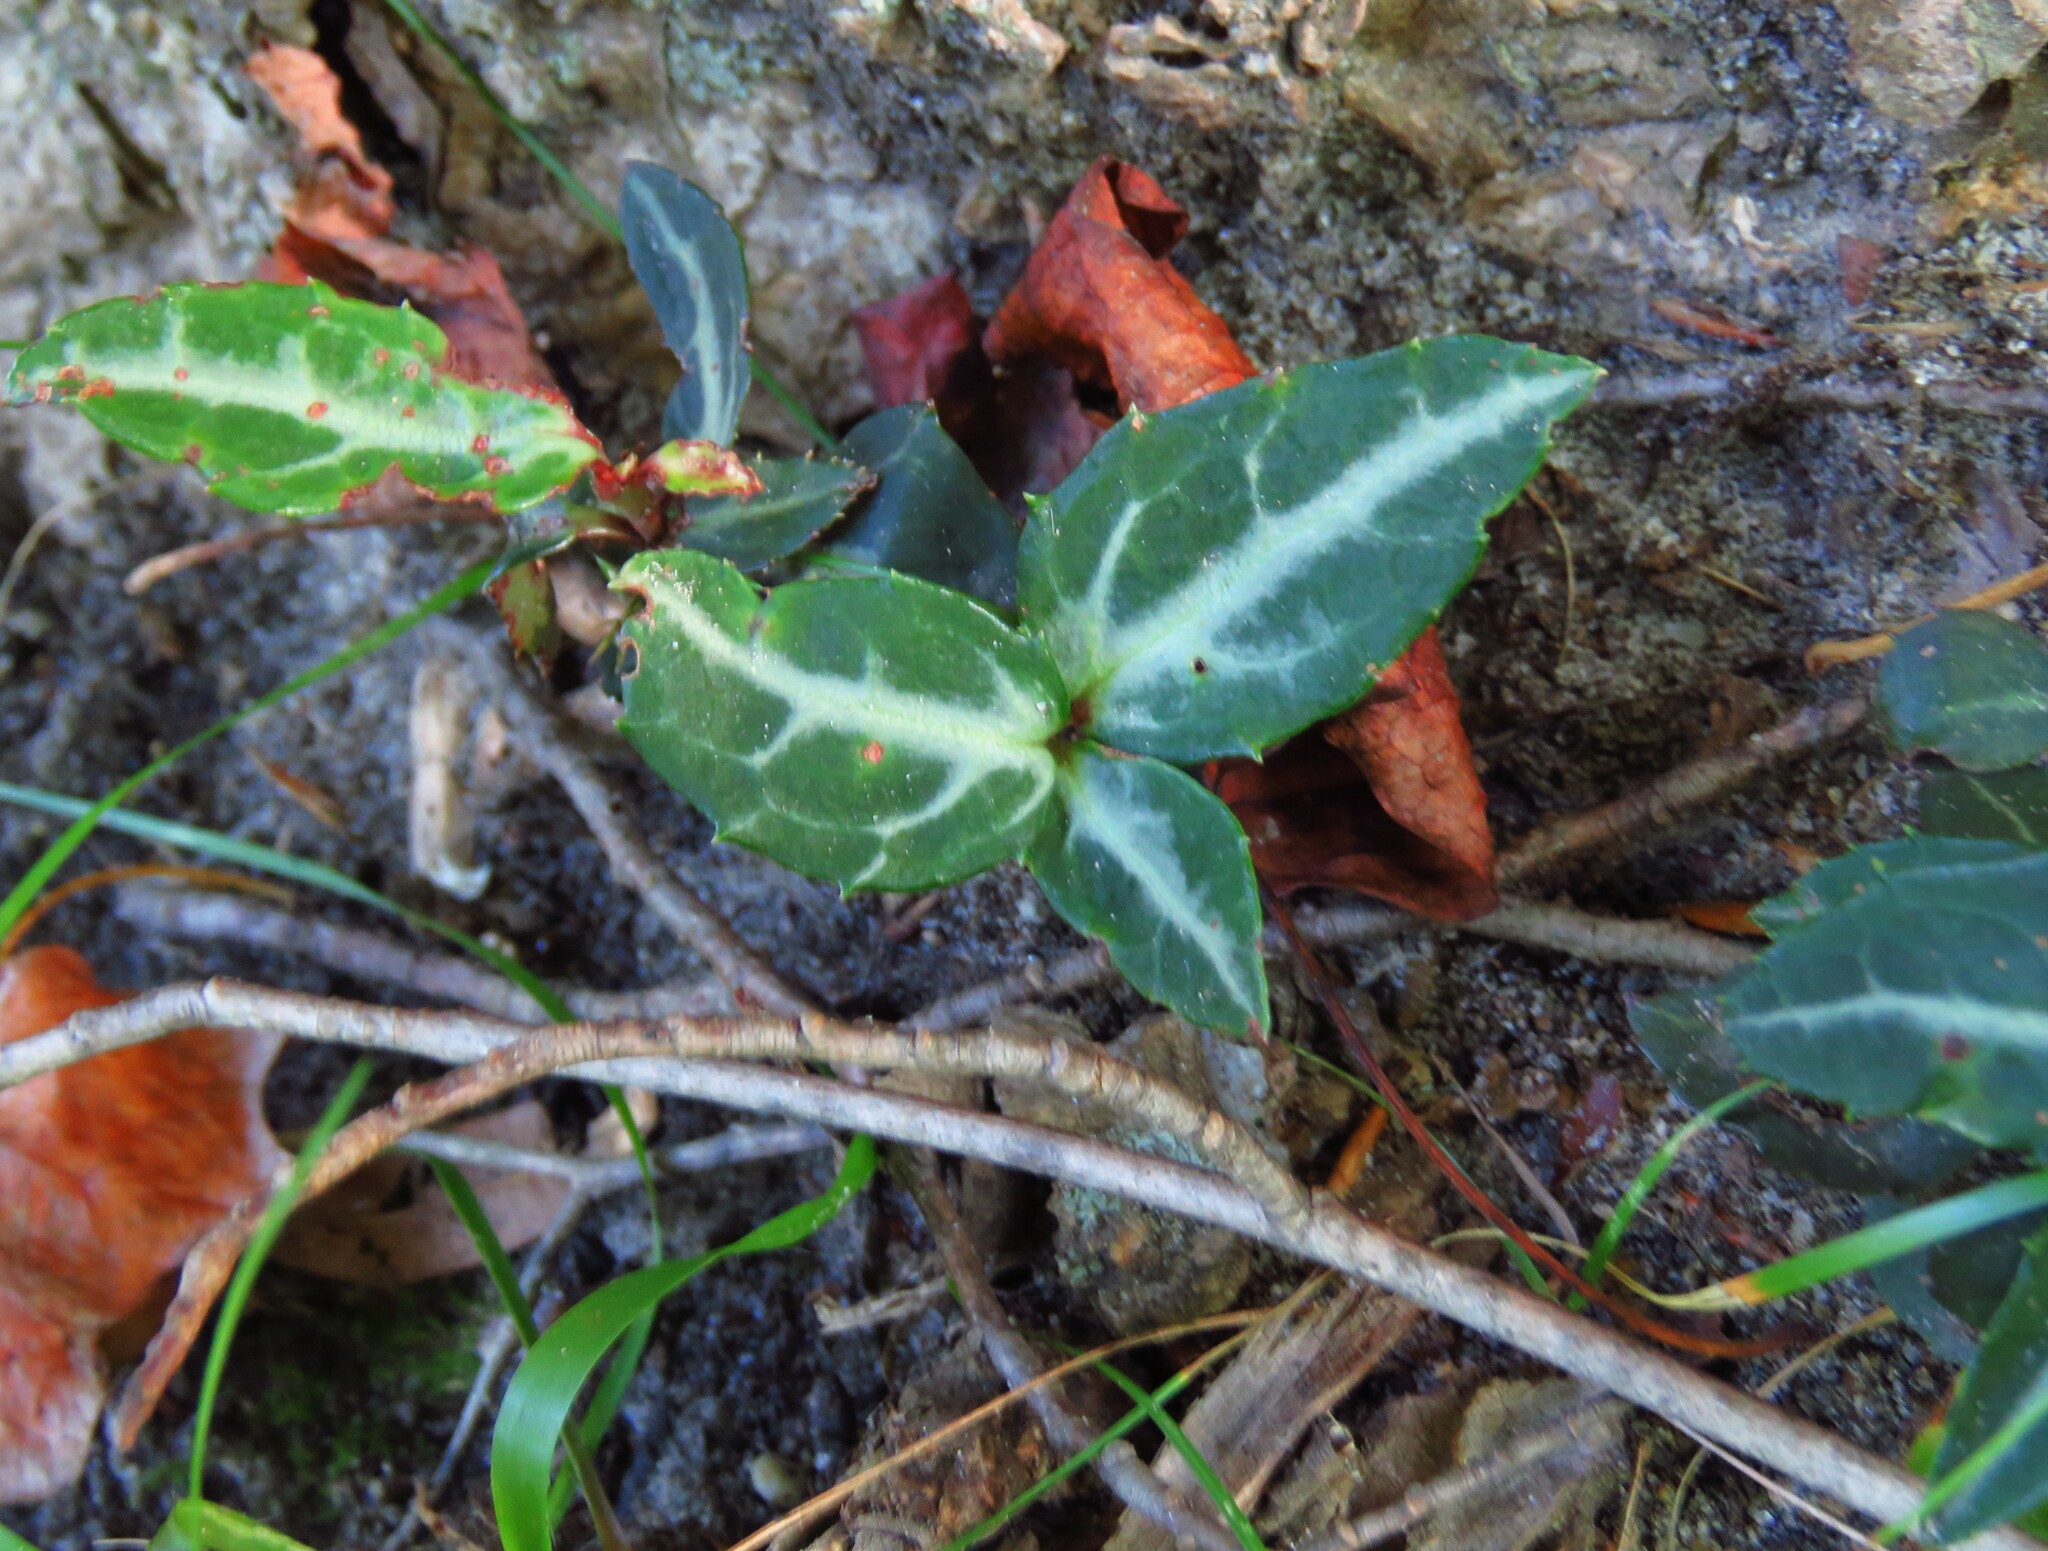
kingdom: Plantae
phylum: Tracheophyta
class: Magnoliopsida
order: Ericales
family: Ericaceae
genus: Chimaphila
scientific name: Chimaphila maculata
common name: Spotted pipsissewa
